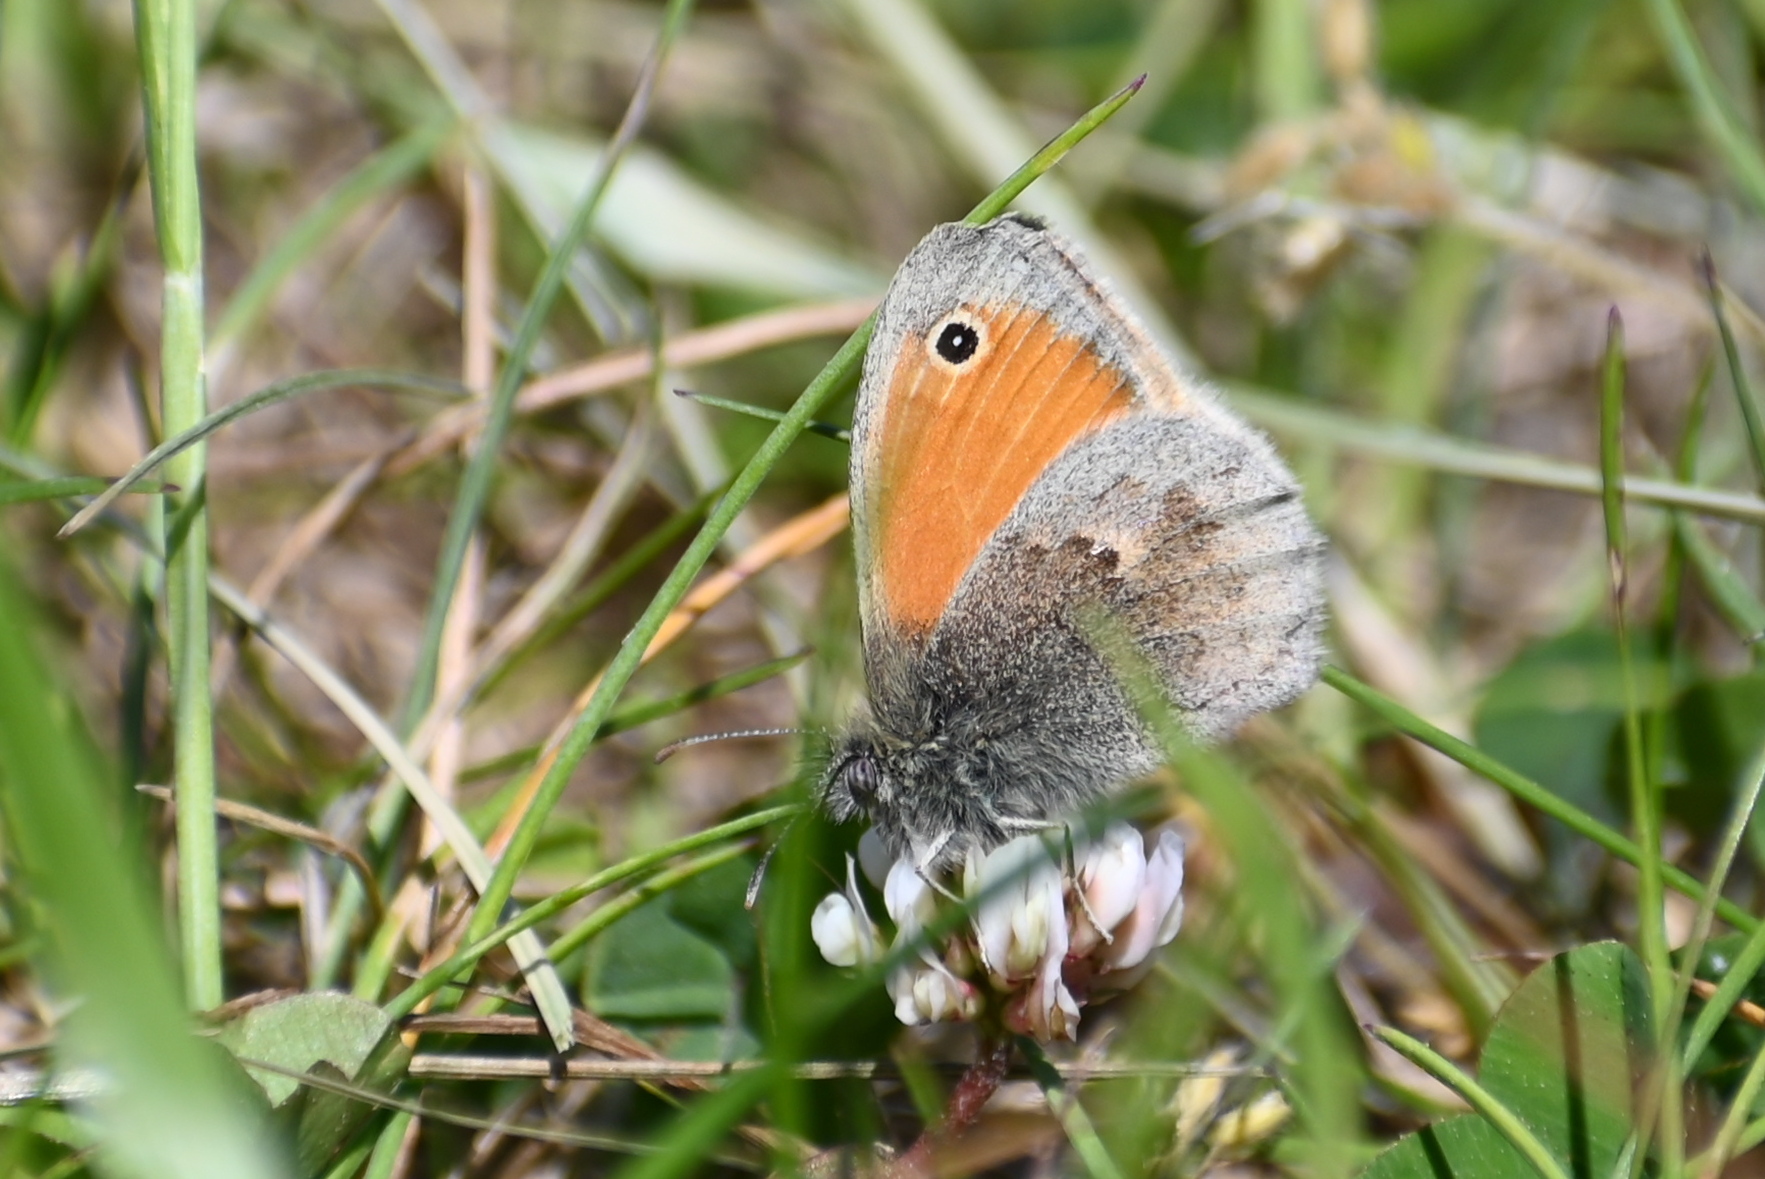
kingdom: Animalia
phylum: Arthropoda
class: Insecta
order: Lepidoptera
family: Nymphalidae
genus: Coenonympha
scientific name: Coenonympha pamphilus
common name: Small heath
